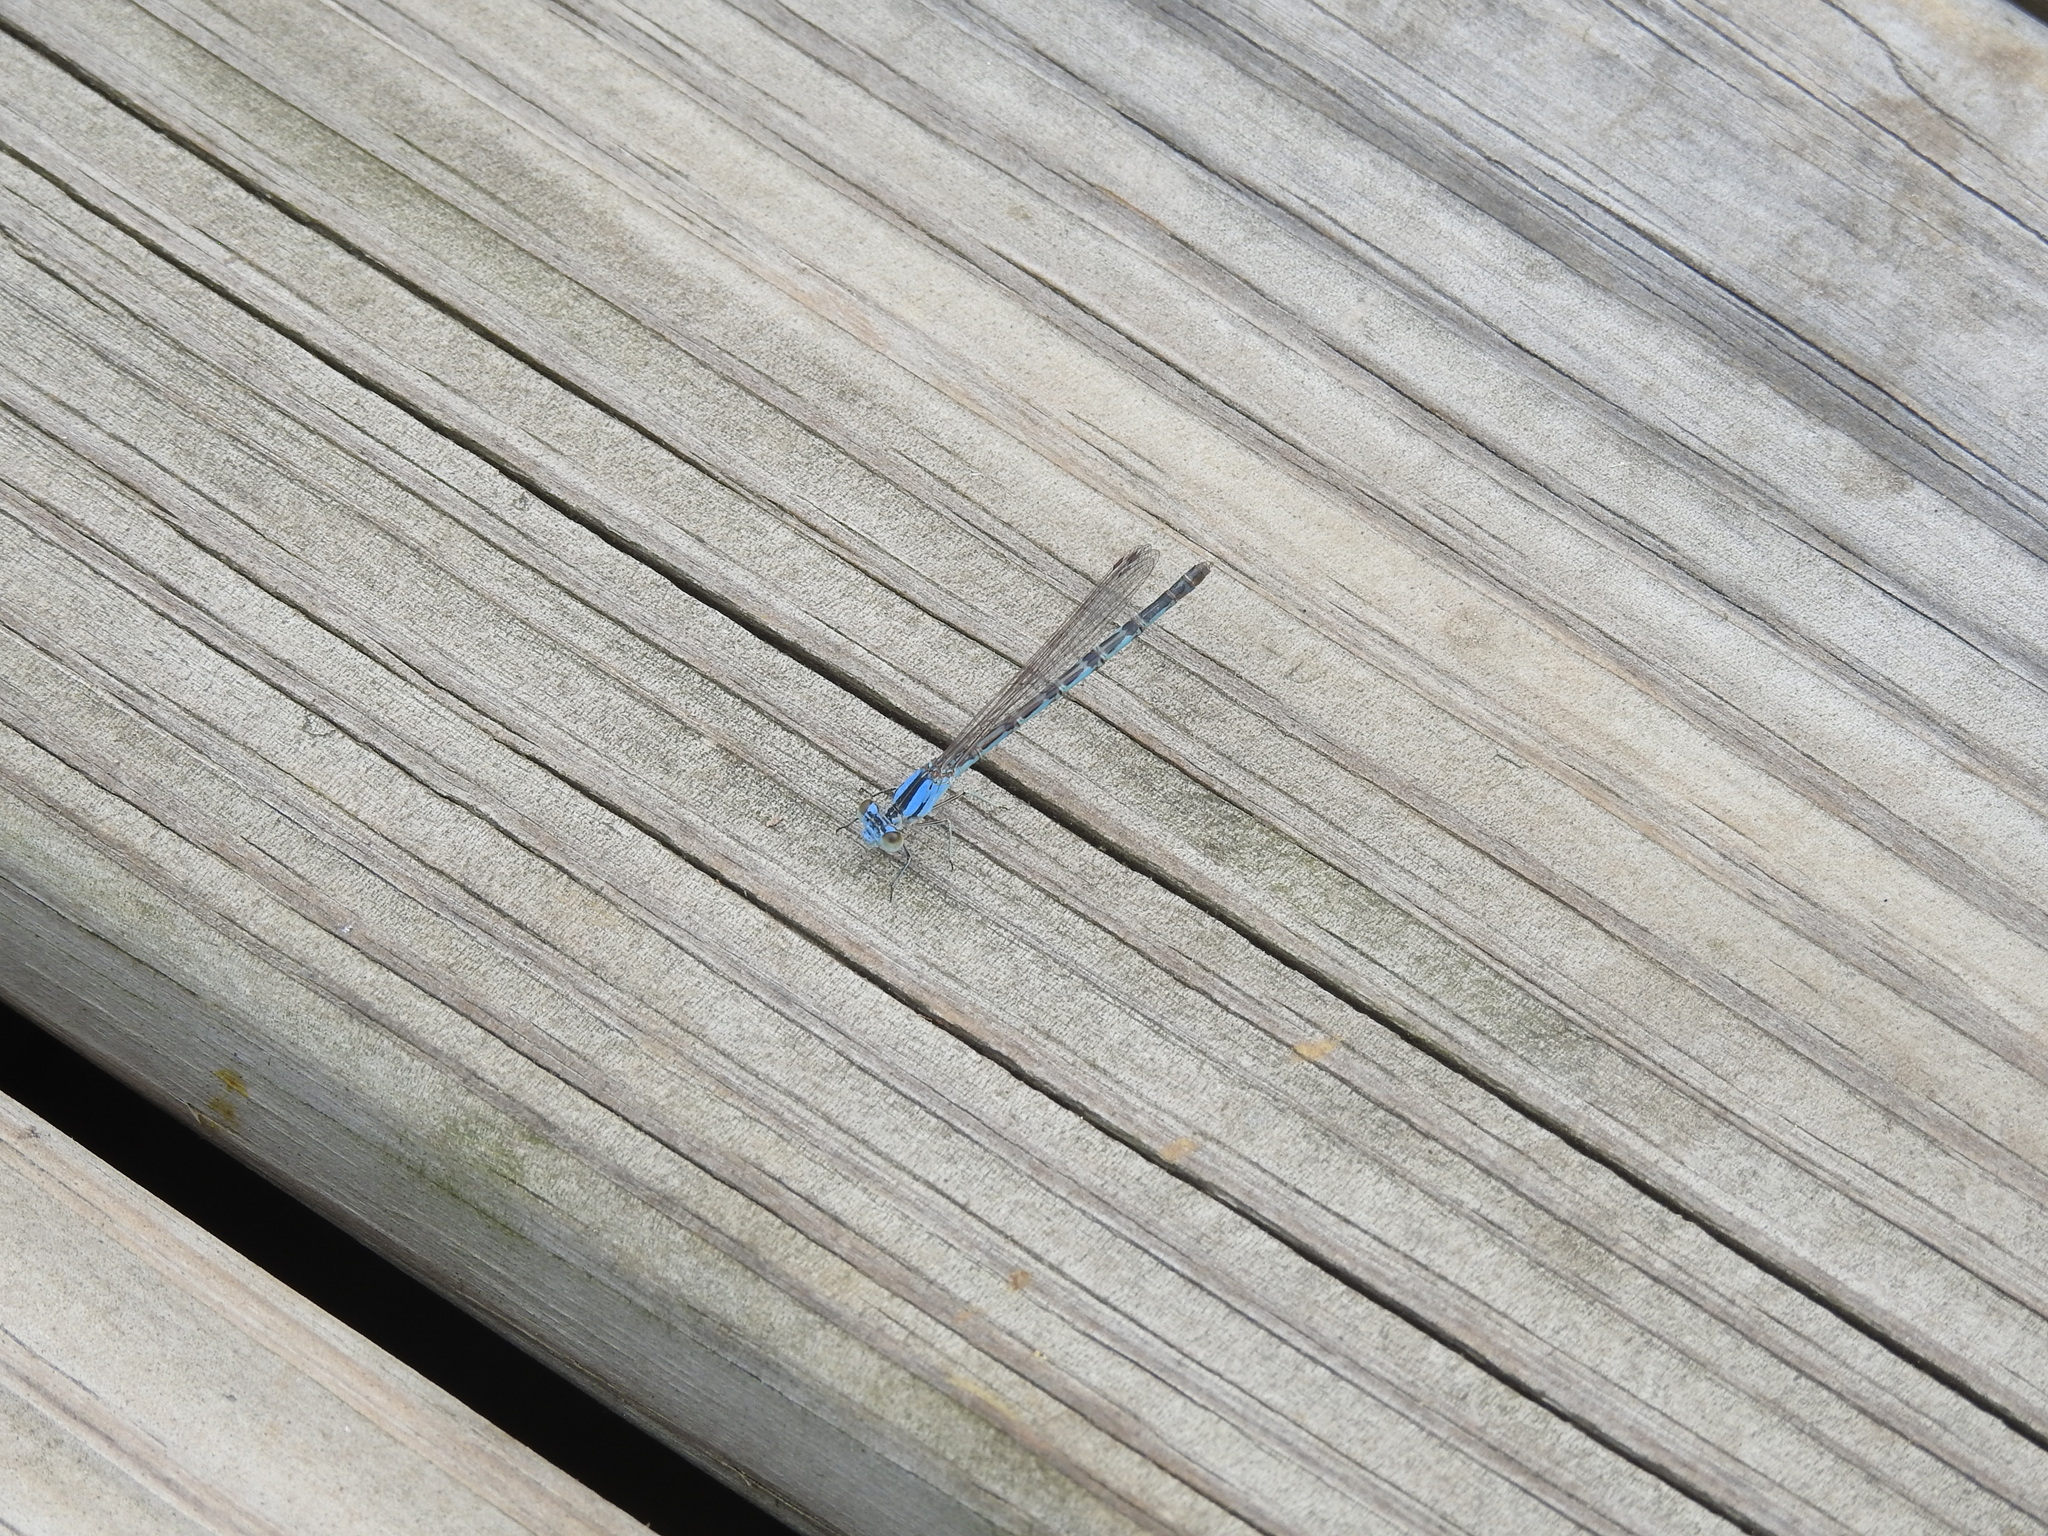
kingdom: Animalia
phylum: Arthropoda
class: Insecta
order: Odonata
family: Coenagrionidae
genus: Argia
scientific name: Argia alberta
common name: Paiute dancer
